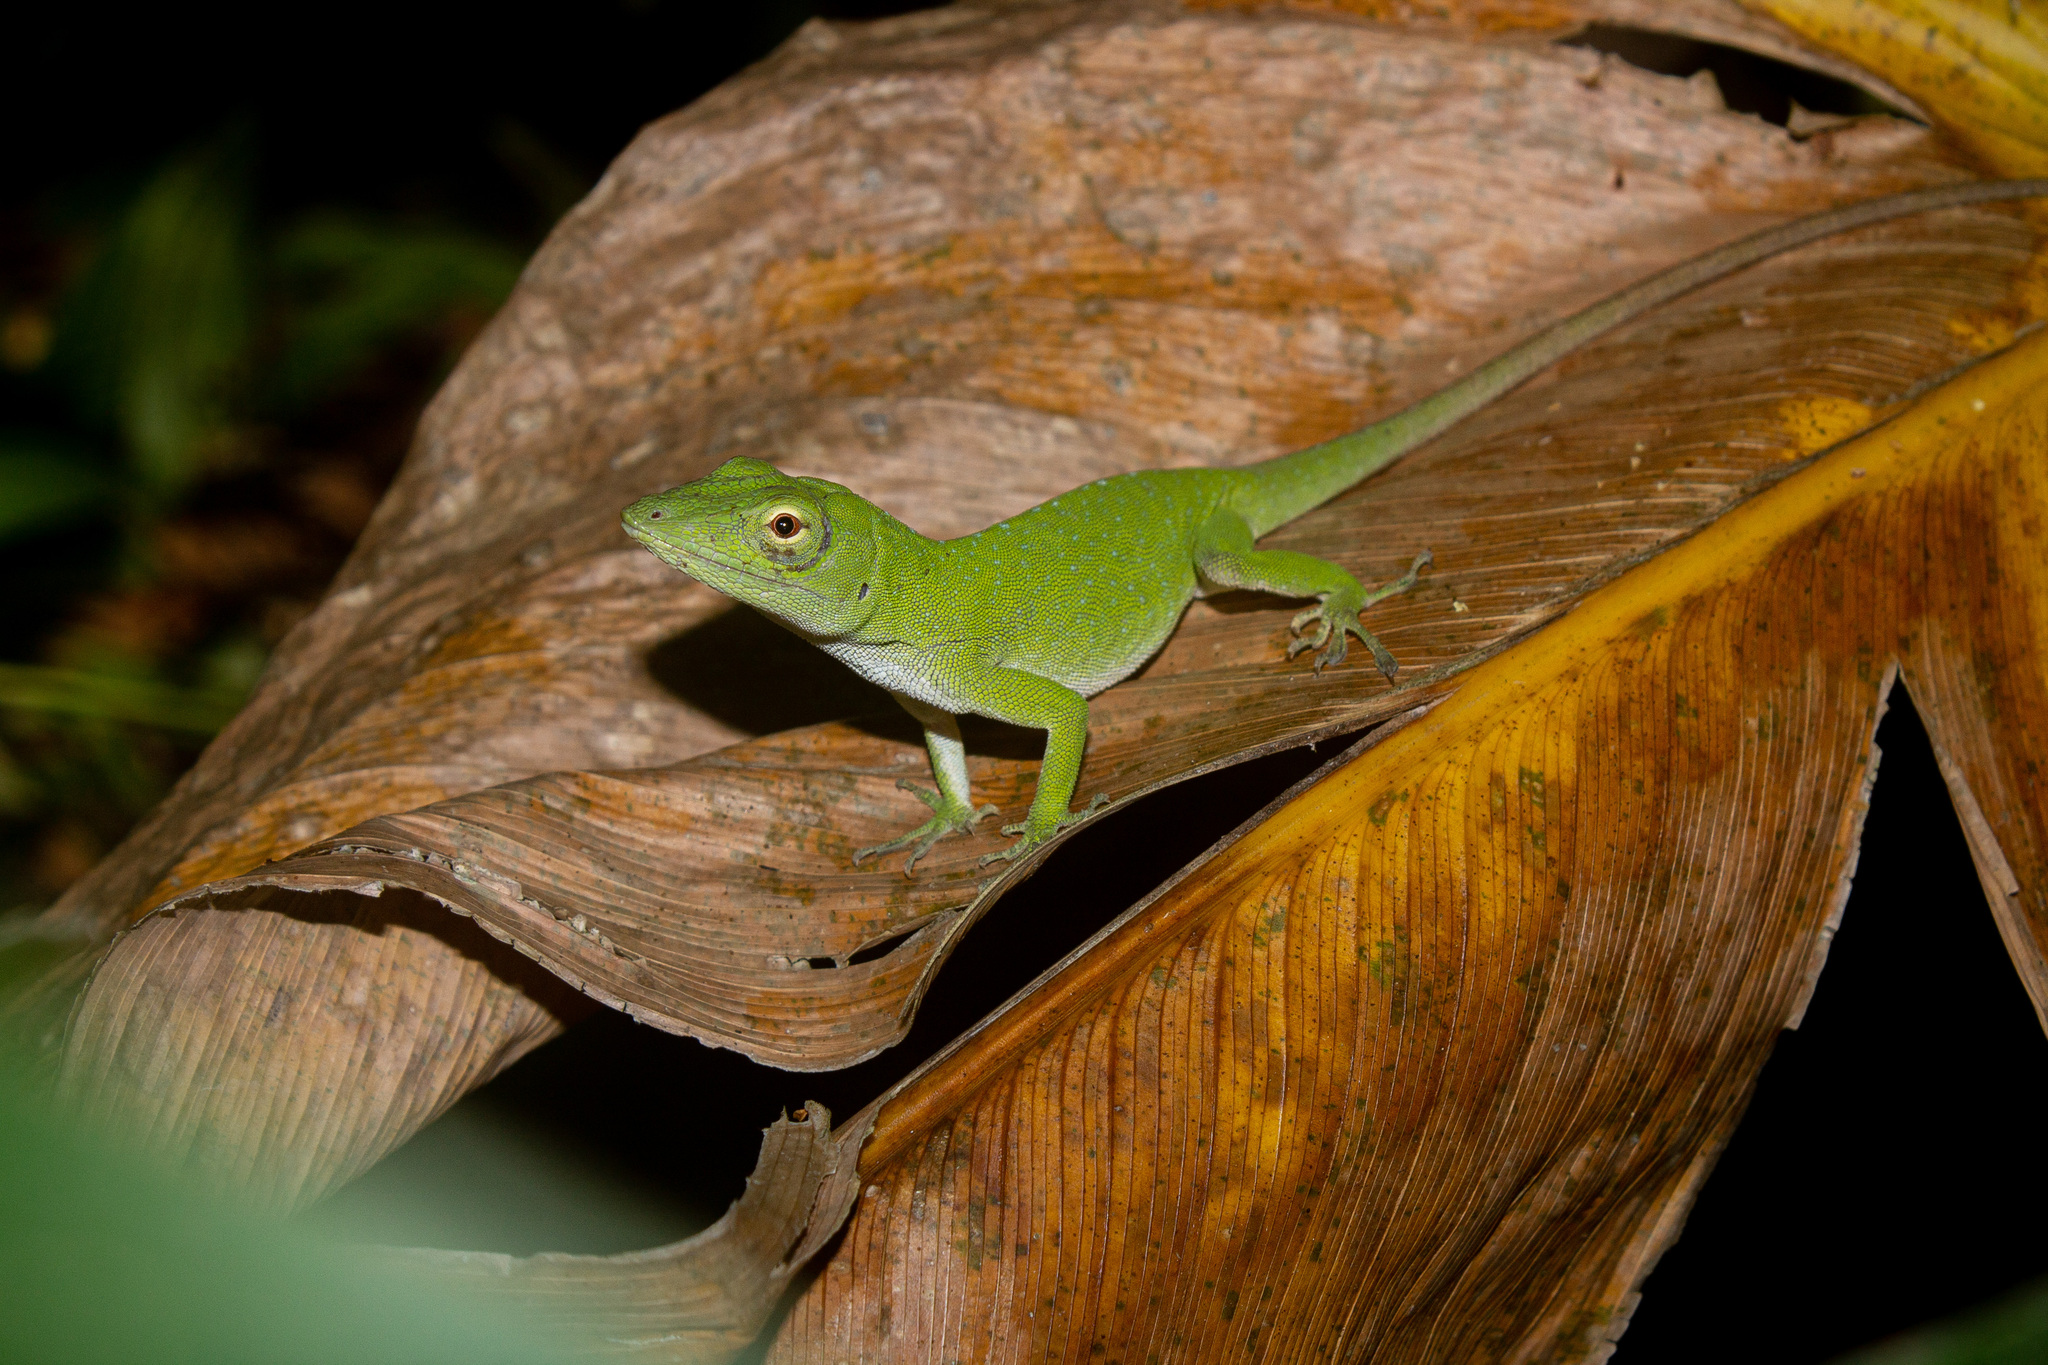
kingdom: Animalia
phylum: Chordata
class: Squamata
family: Dactyloidae
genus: Anolis
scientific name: Anolis biporcatus
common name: Giant green anole
